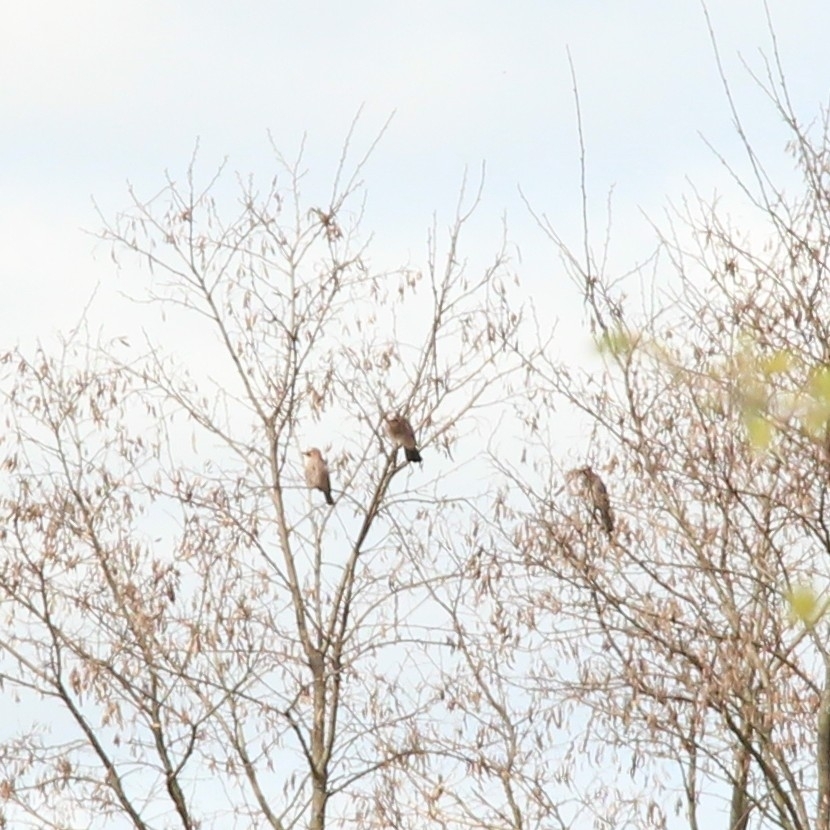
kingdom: Animalia
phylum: Chordata
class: Aves
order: Passeriformes
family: Corvidae
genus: Garrulus
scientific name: Garrulus glandarius
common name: Eurasian jay
